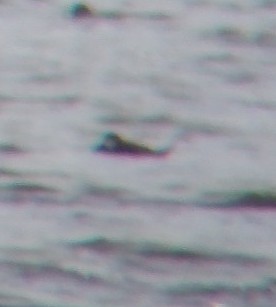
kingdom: Animalia
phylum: Chordata
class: Aves
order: Anseriformes
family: Anatidae
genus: Oxyura
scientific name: Oxyura jamaicensis
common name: Ruddy duck
